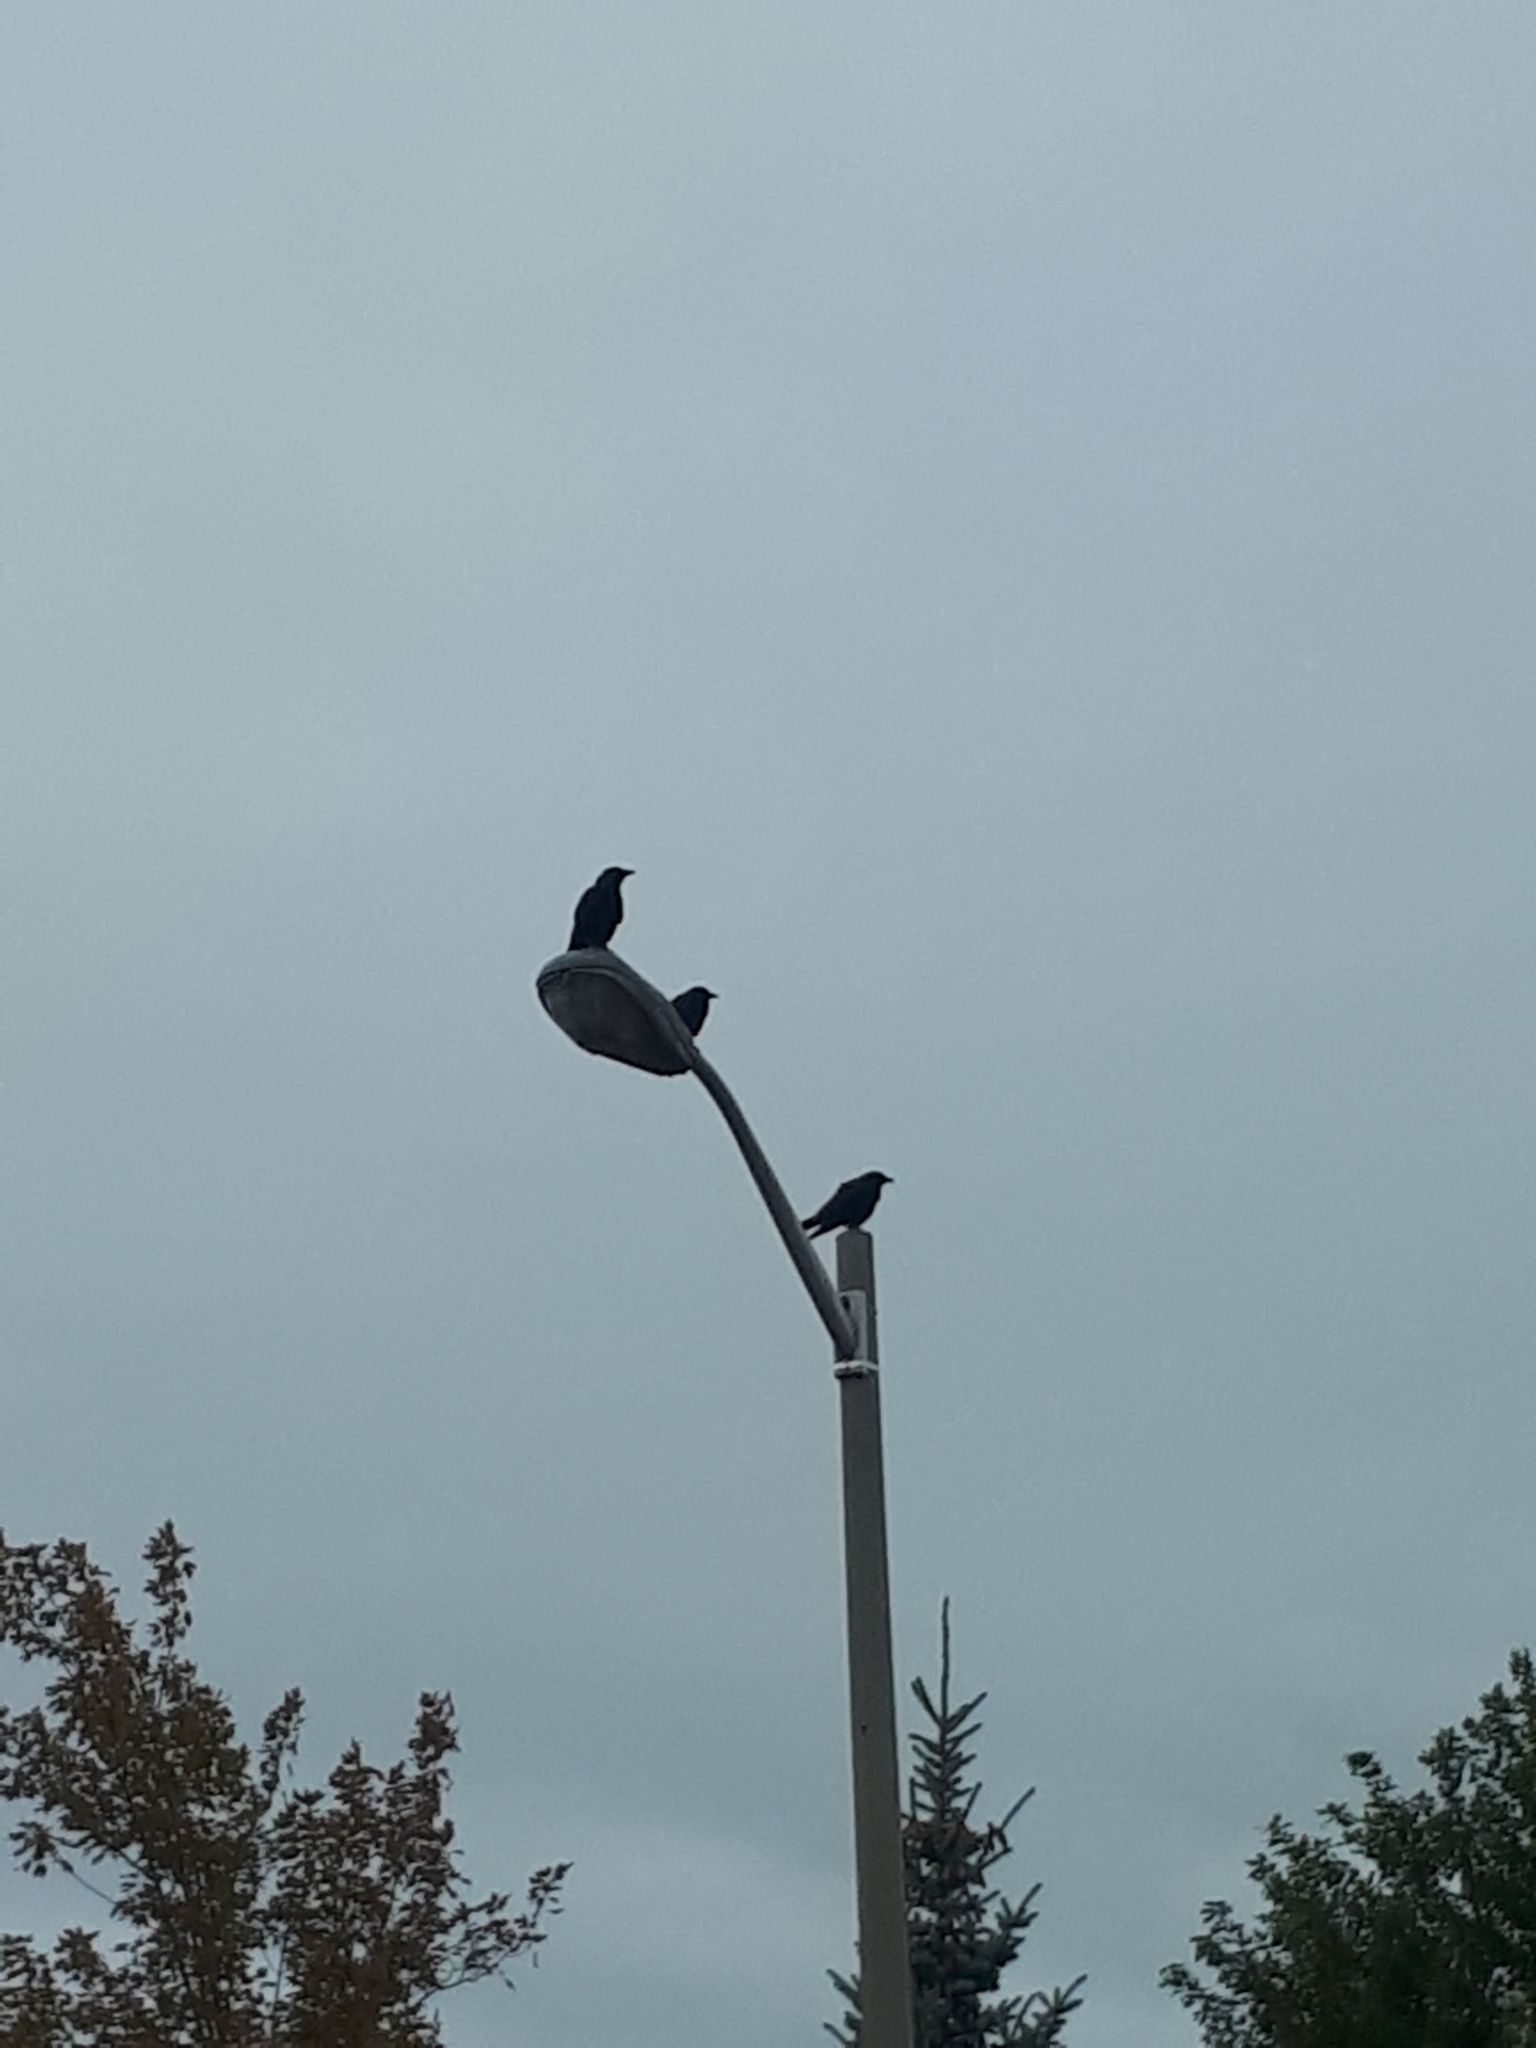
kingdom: Animalia
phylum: Chordata
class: Aves
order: Passeriformes
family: Corvidae
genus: Corvus
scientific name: Corvus brachyrhynchos
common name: American crow
